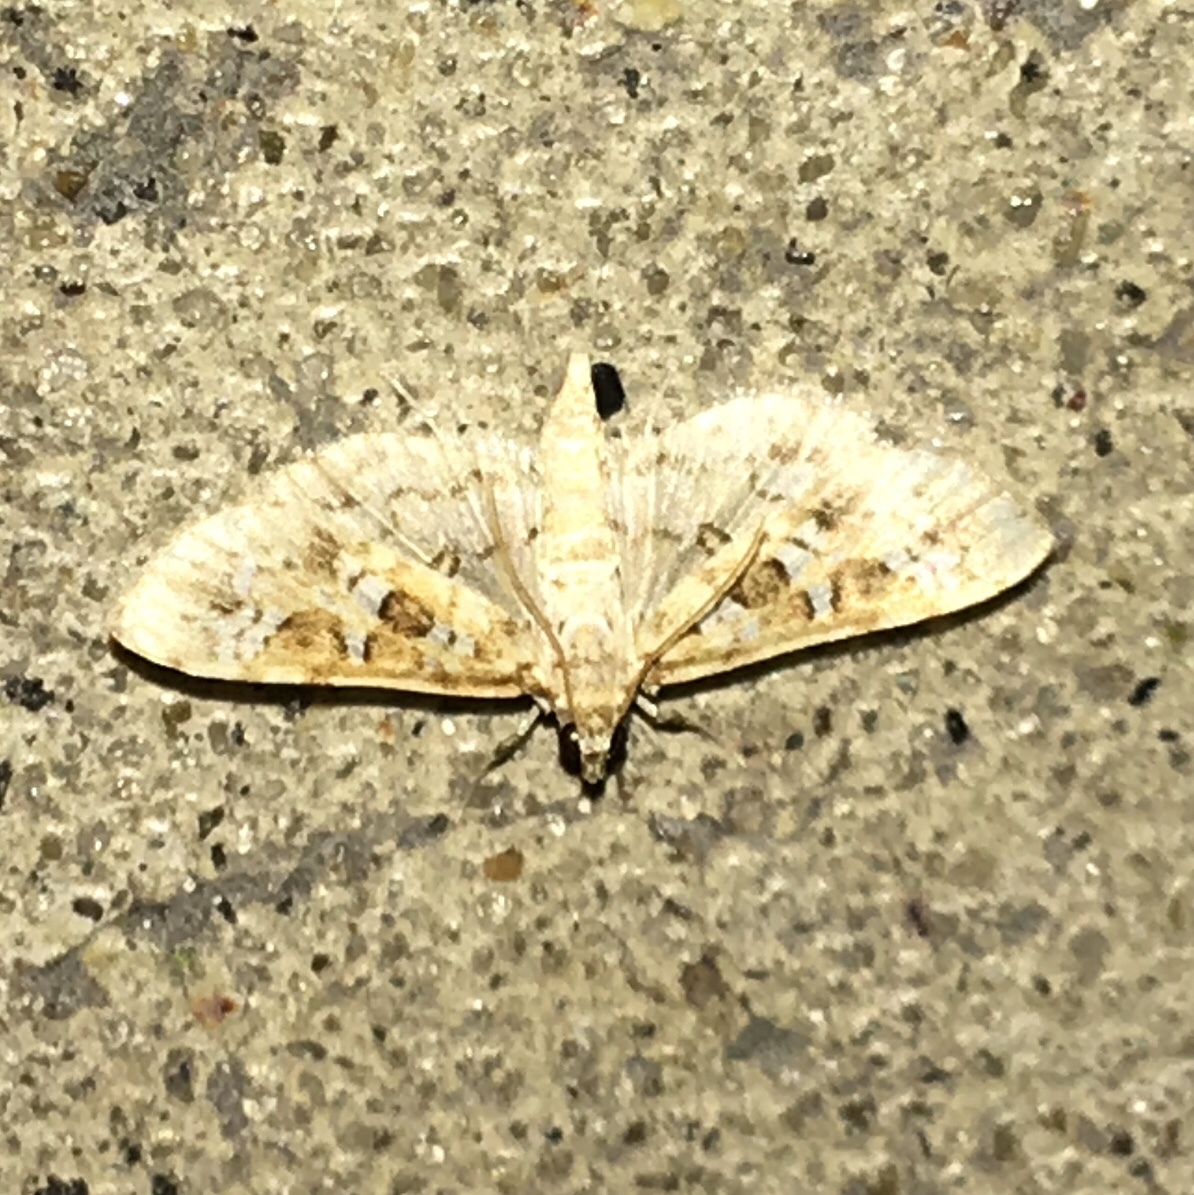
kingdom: Animalia
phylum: Arthropoda
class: Insecta
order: Lepidoptera
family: Crambidae
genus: Samea
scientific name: Samea multiplicalis
